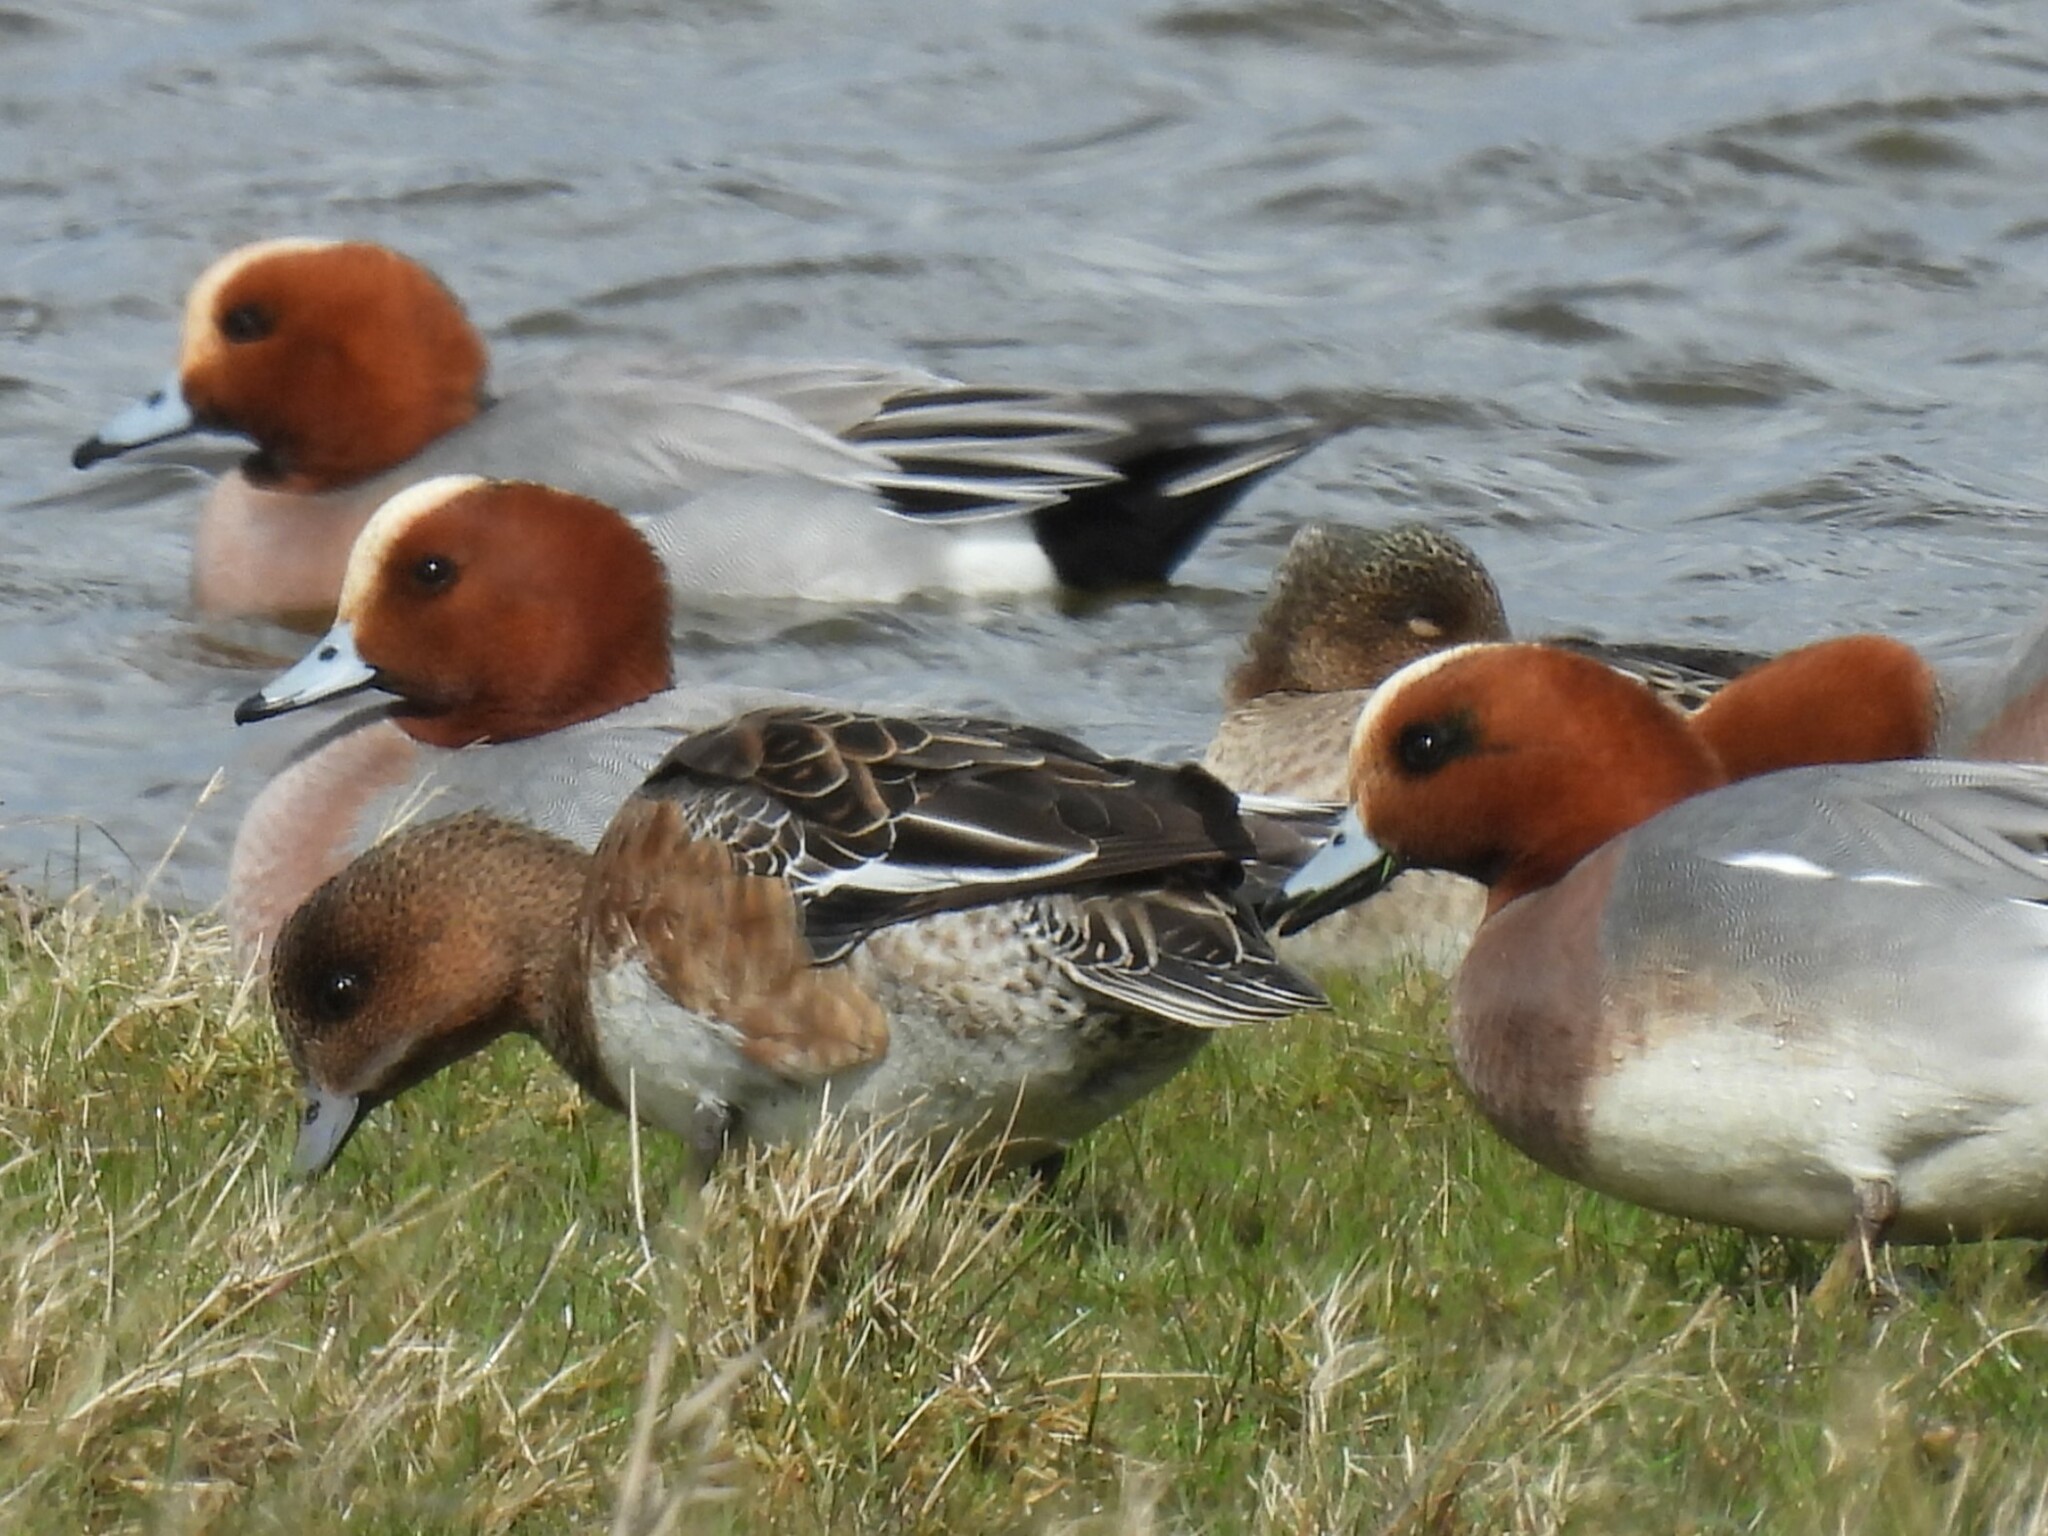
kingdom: Animalia
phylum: Chordata
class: Aves
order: Anseriformes
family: Anatidae
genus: Mareca
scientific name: Mareca penelope
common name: Eurasian wigeon
